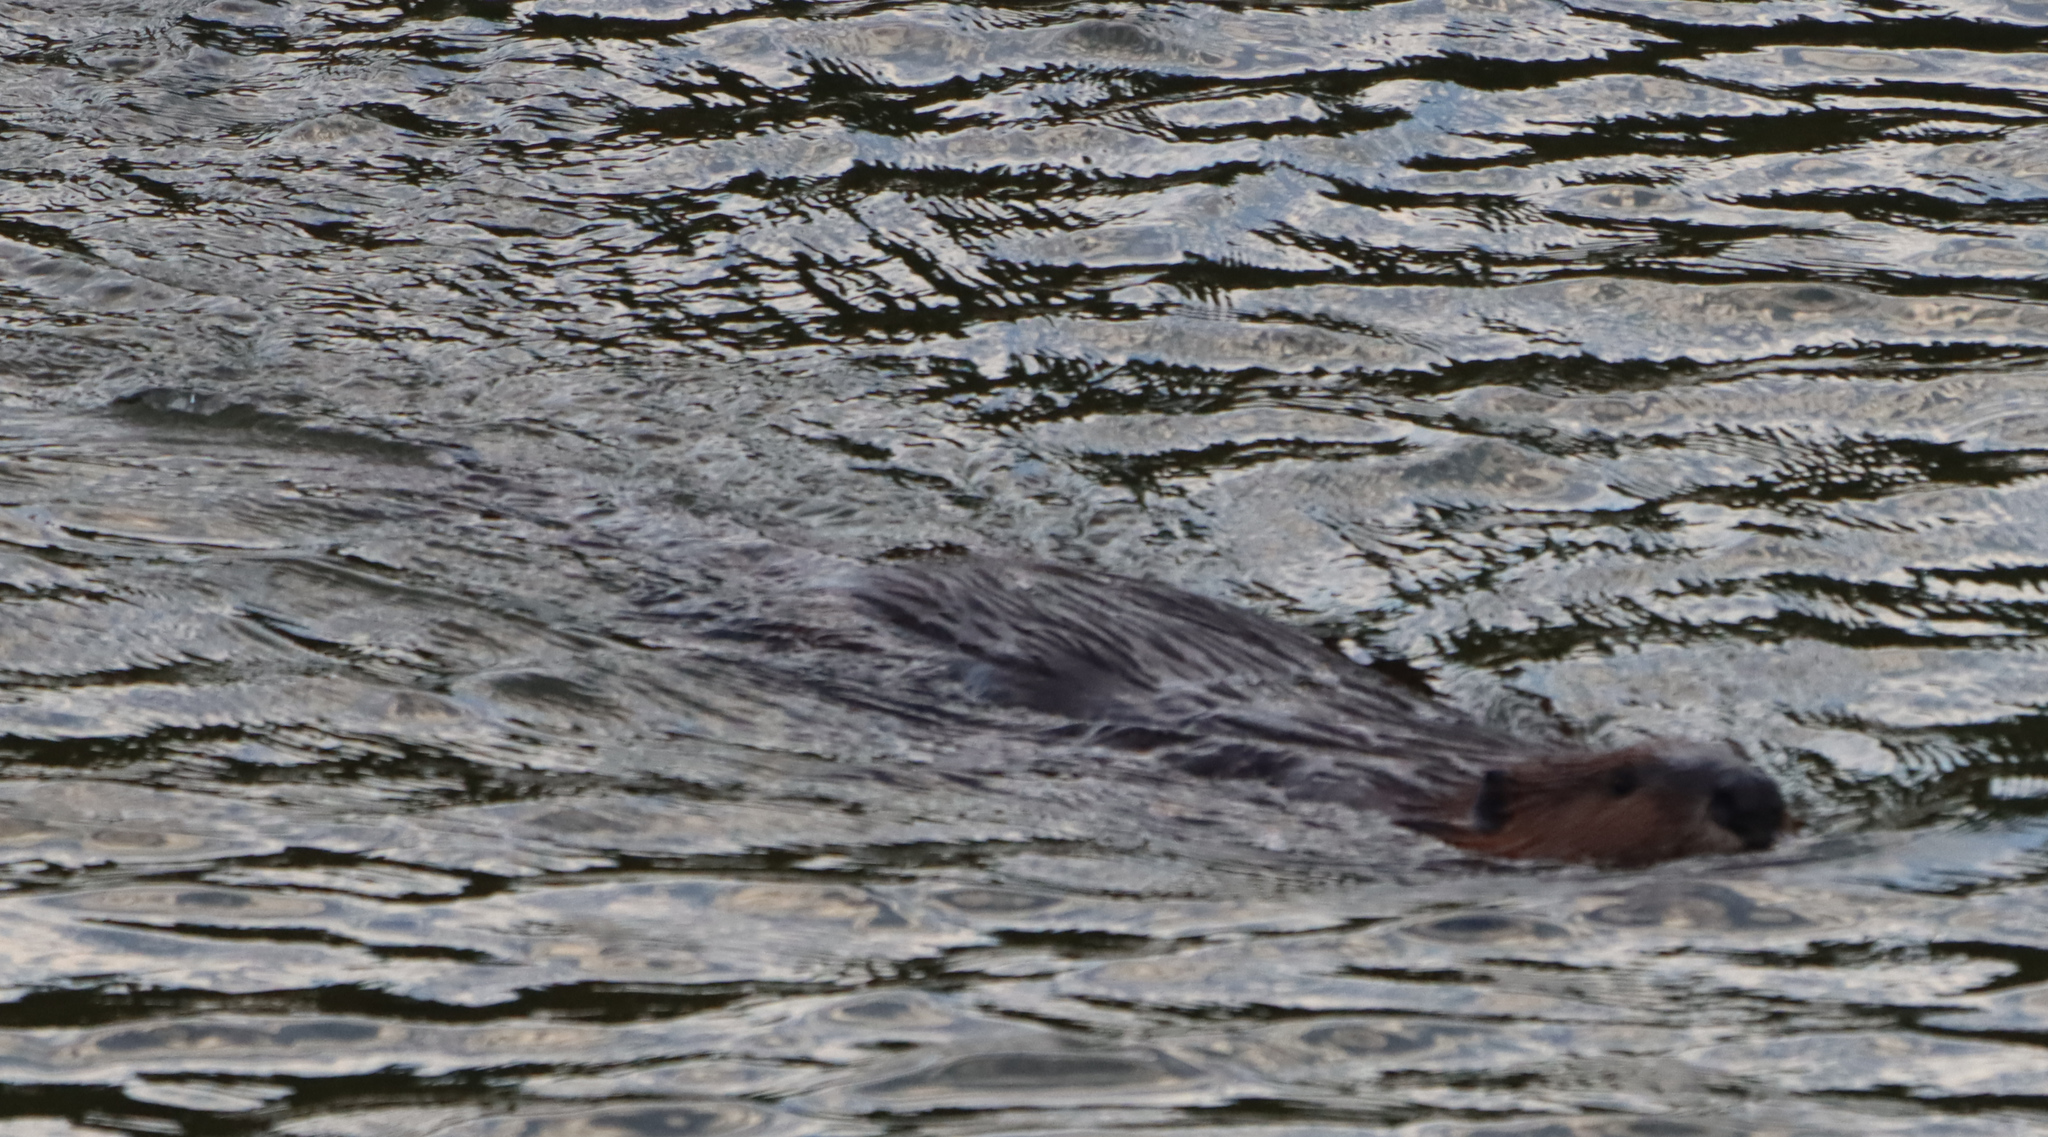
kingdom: Animalia
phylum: Chordata
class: Mammalia
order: Rodentia
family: Castoridae
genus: Castor
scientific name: Castor canadensis
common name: American beaver
